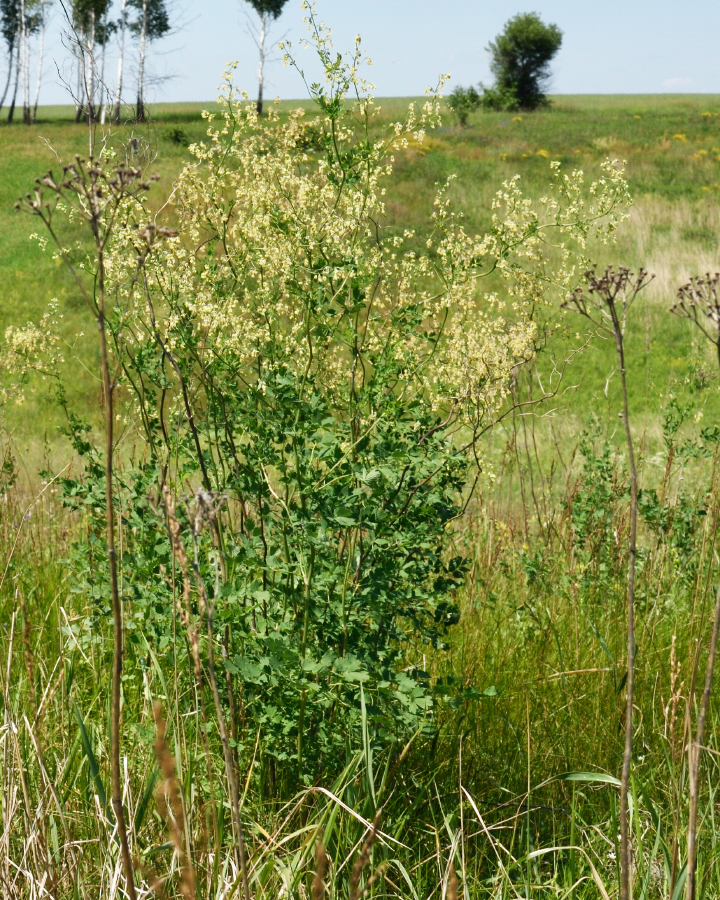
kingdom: Plantae
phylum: Tracheophyta
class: Magnoliopsida
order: Ranunculales
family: Ranunculaceae
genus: Thalictrum
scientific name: Thalictrum minus
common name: Lesser meadow-rue
